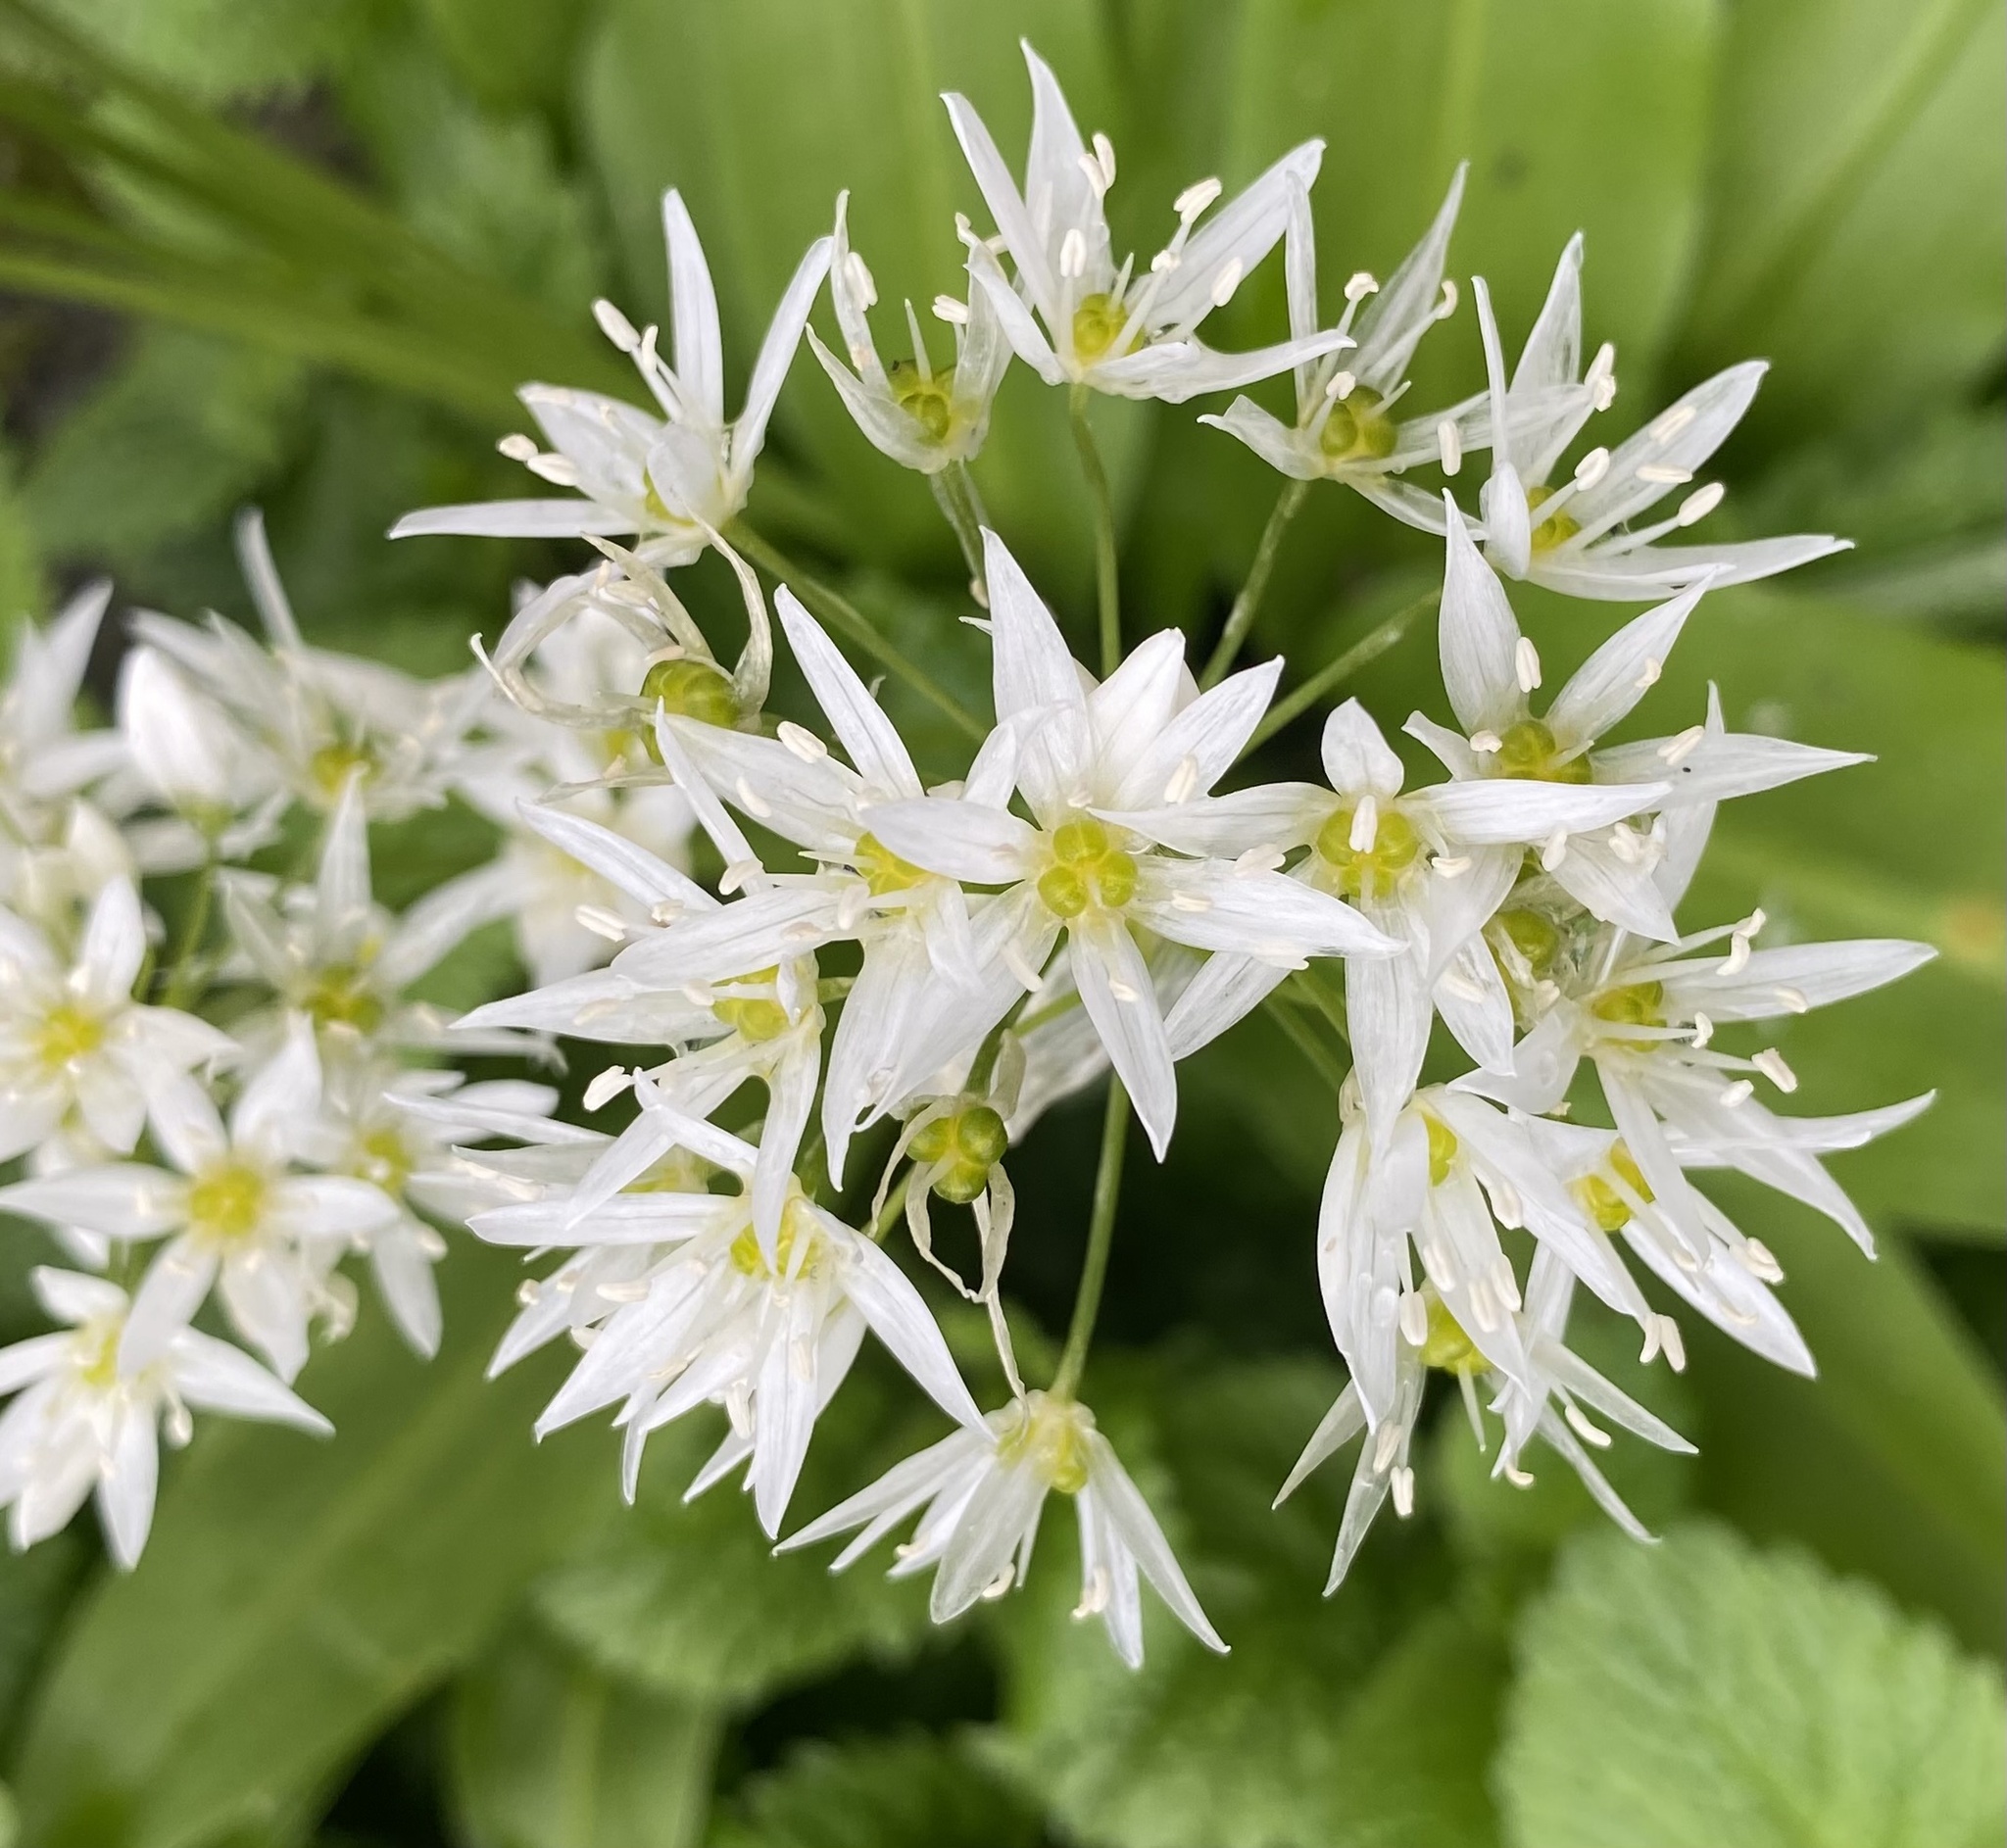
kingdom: Plantae
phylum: Tracheophyta
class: Liliopsida
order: Asparagales
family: Amaryllidaceae
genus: Allium
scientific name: Allium ursinum
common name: Ramsons
